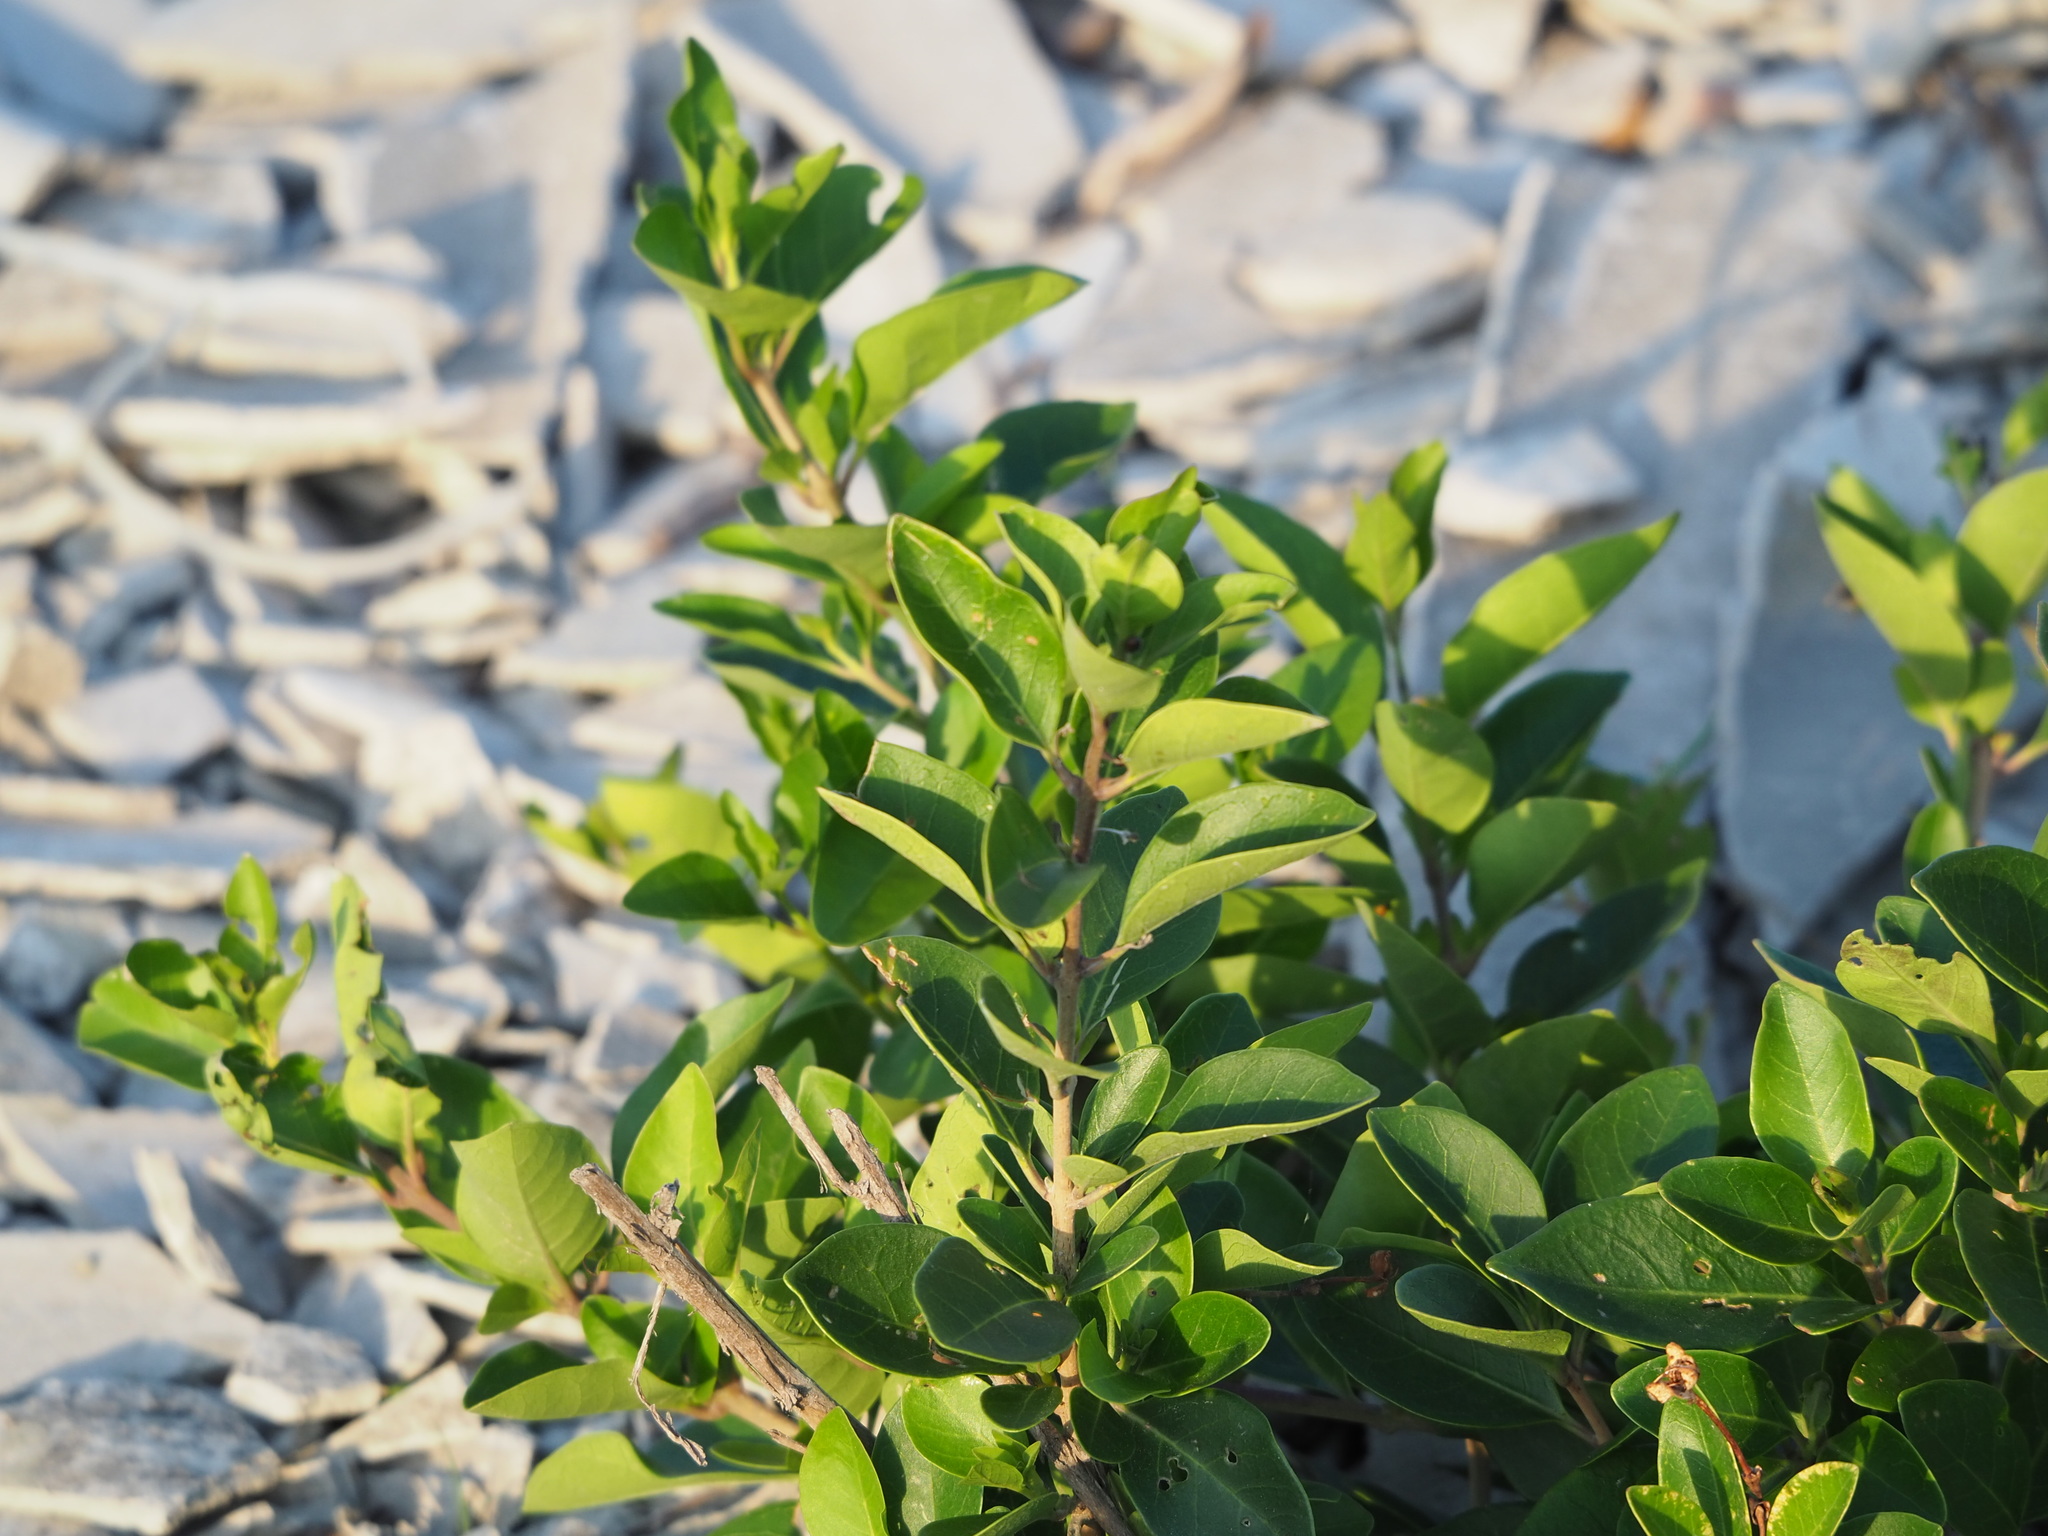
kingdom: Plantae
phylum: Tracheophyta
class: Magnoliopsida
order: Lamiales
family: Lamiaceae
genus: Volkameria
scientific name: Volkameria inermis
